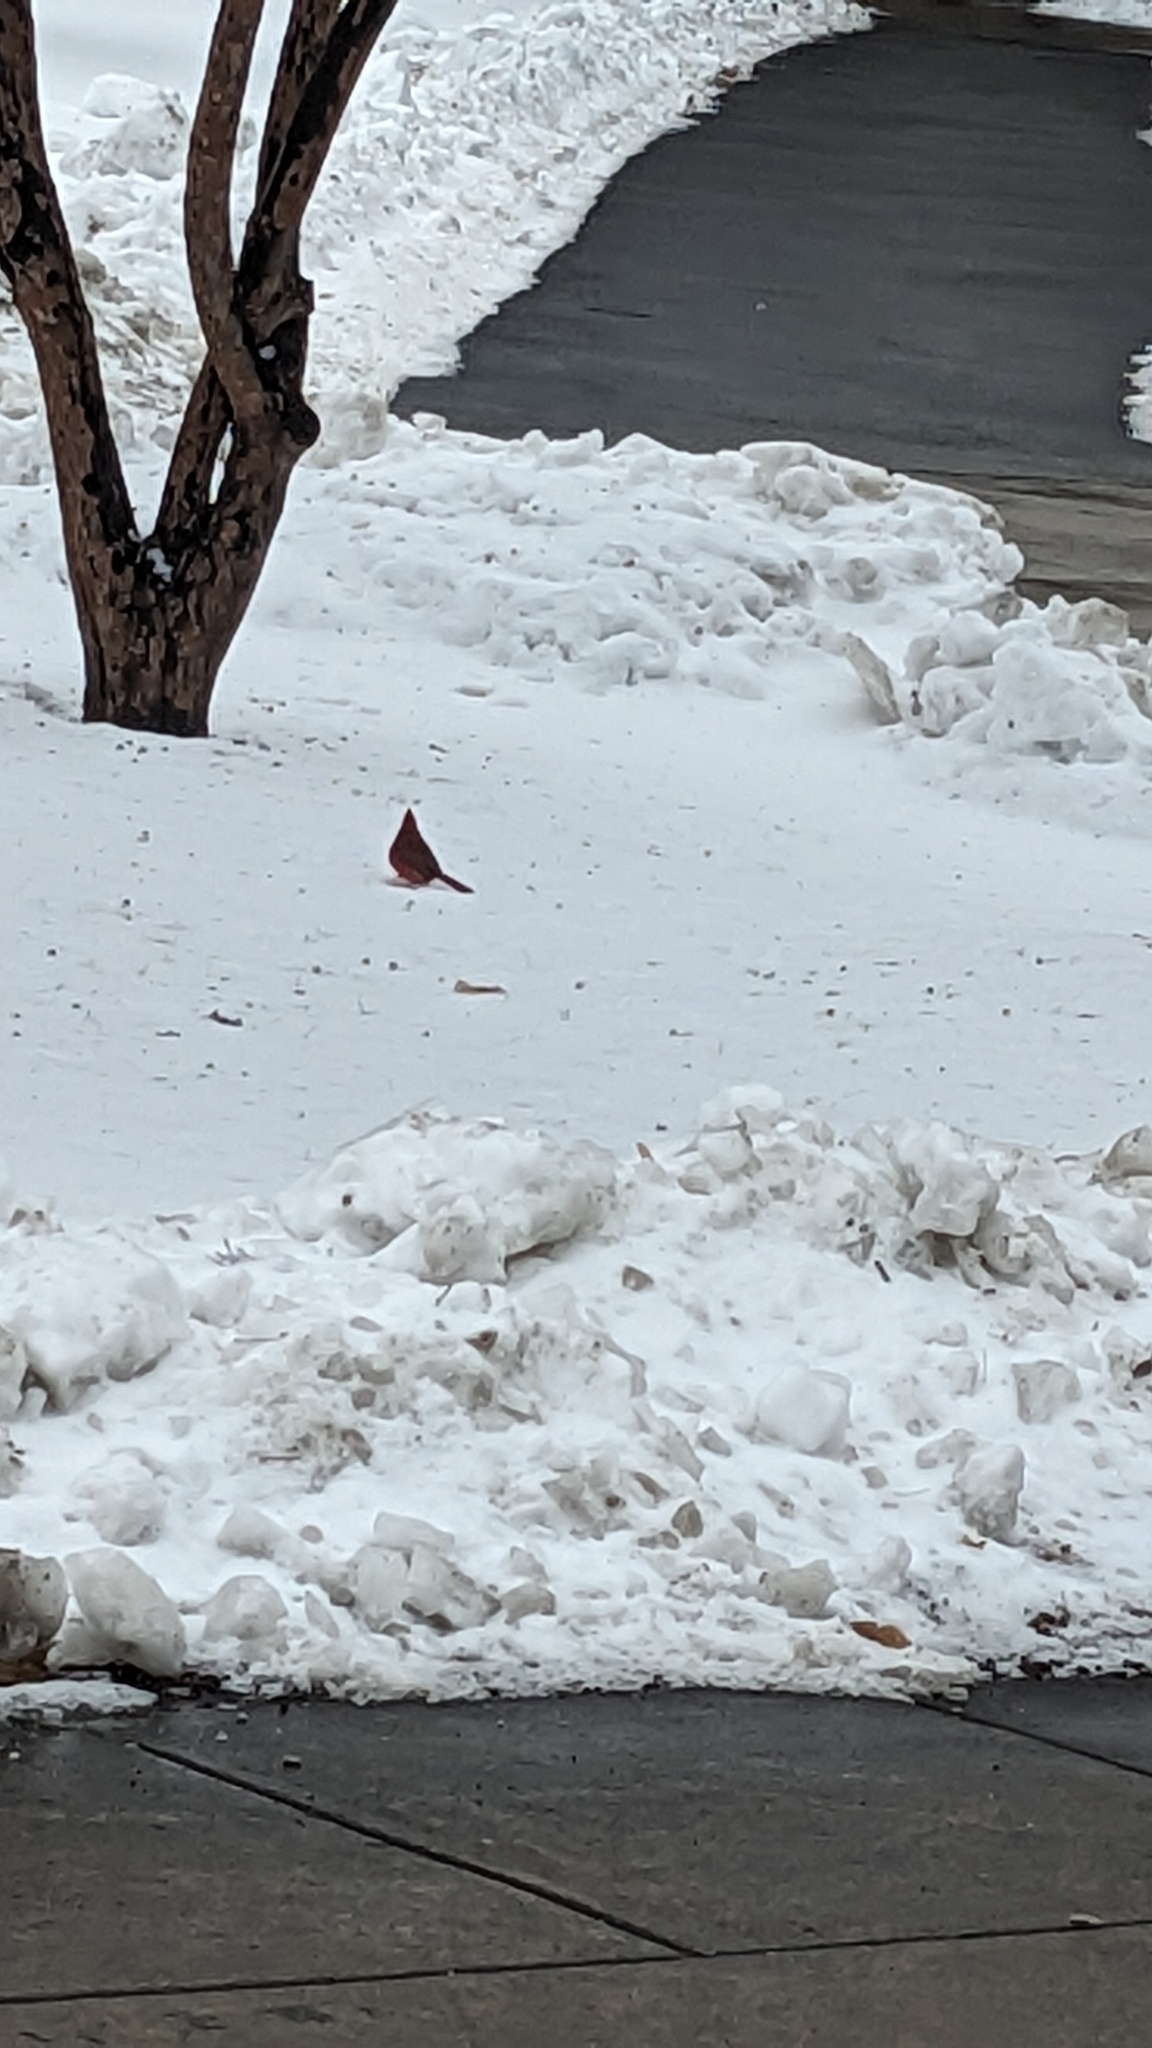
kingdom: Animalia
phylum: Chordata
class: Aves
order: Passeriformes
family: Cardinalidae
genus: Cardinalis
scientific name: Cardinalis cardinalis
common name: Northern cardinal
